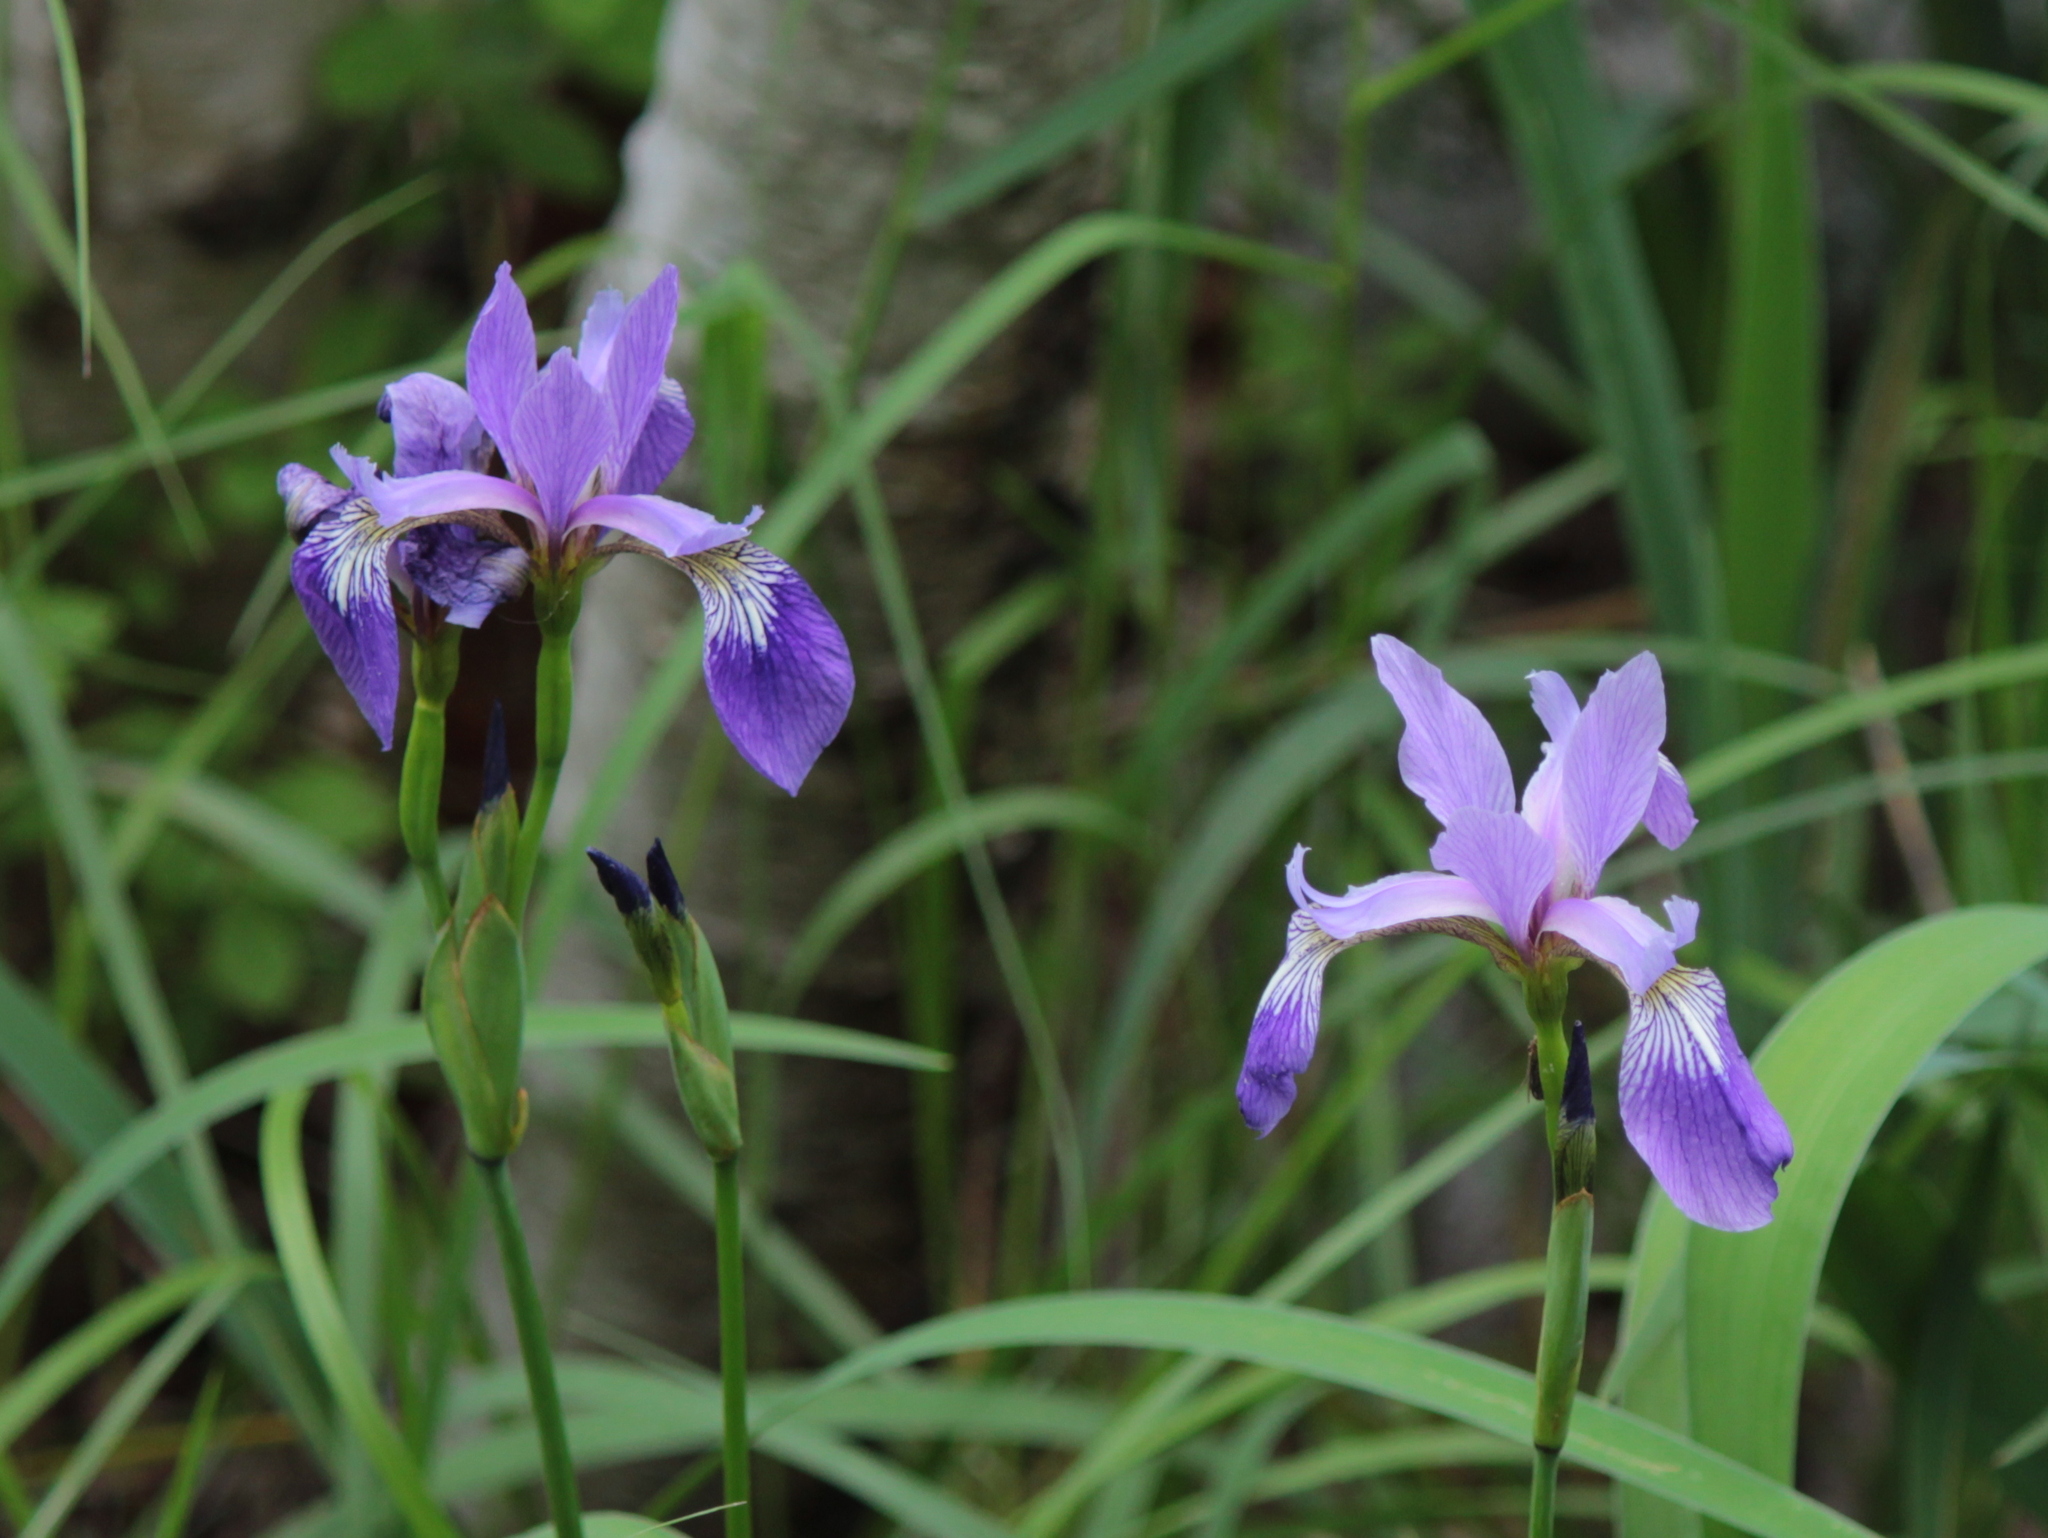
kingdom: Plantae
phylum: Tracheophyta
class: Liliopsida
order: Asparagales
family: Iridaceae
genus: Iris
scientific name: Iris versicolor
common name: Purple iris
